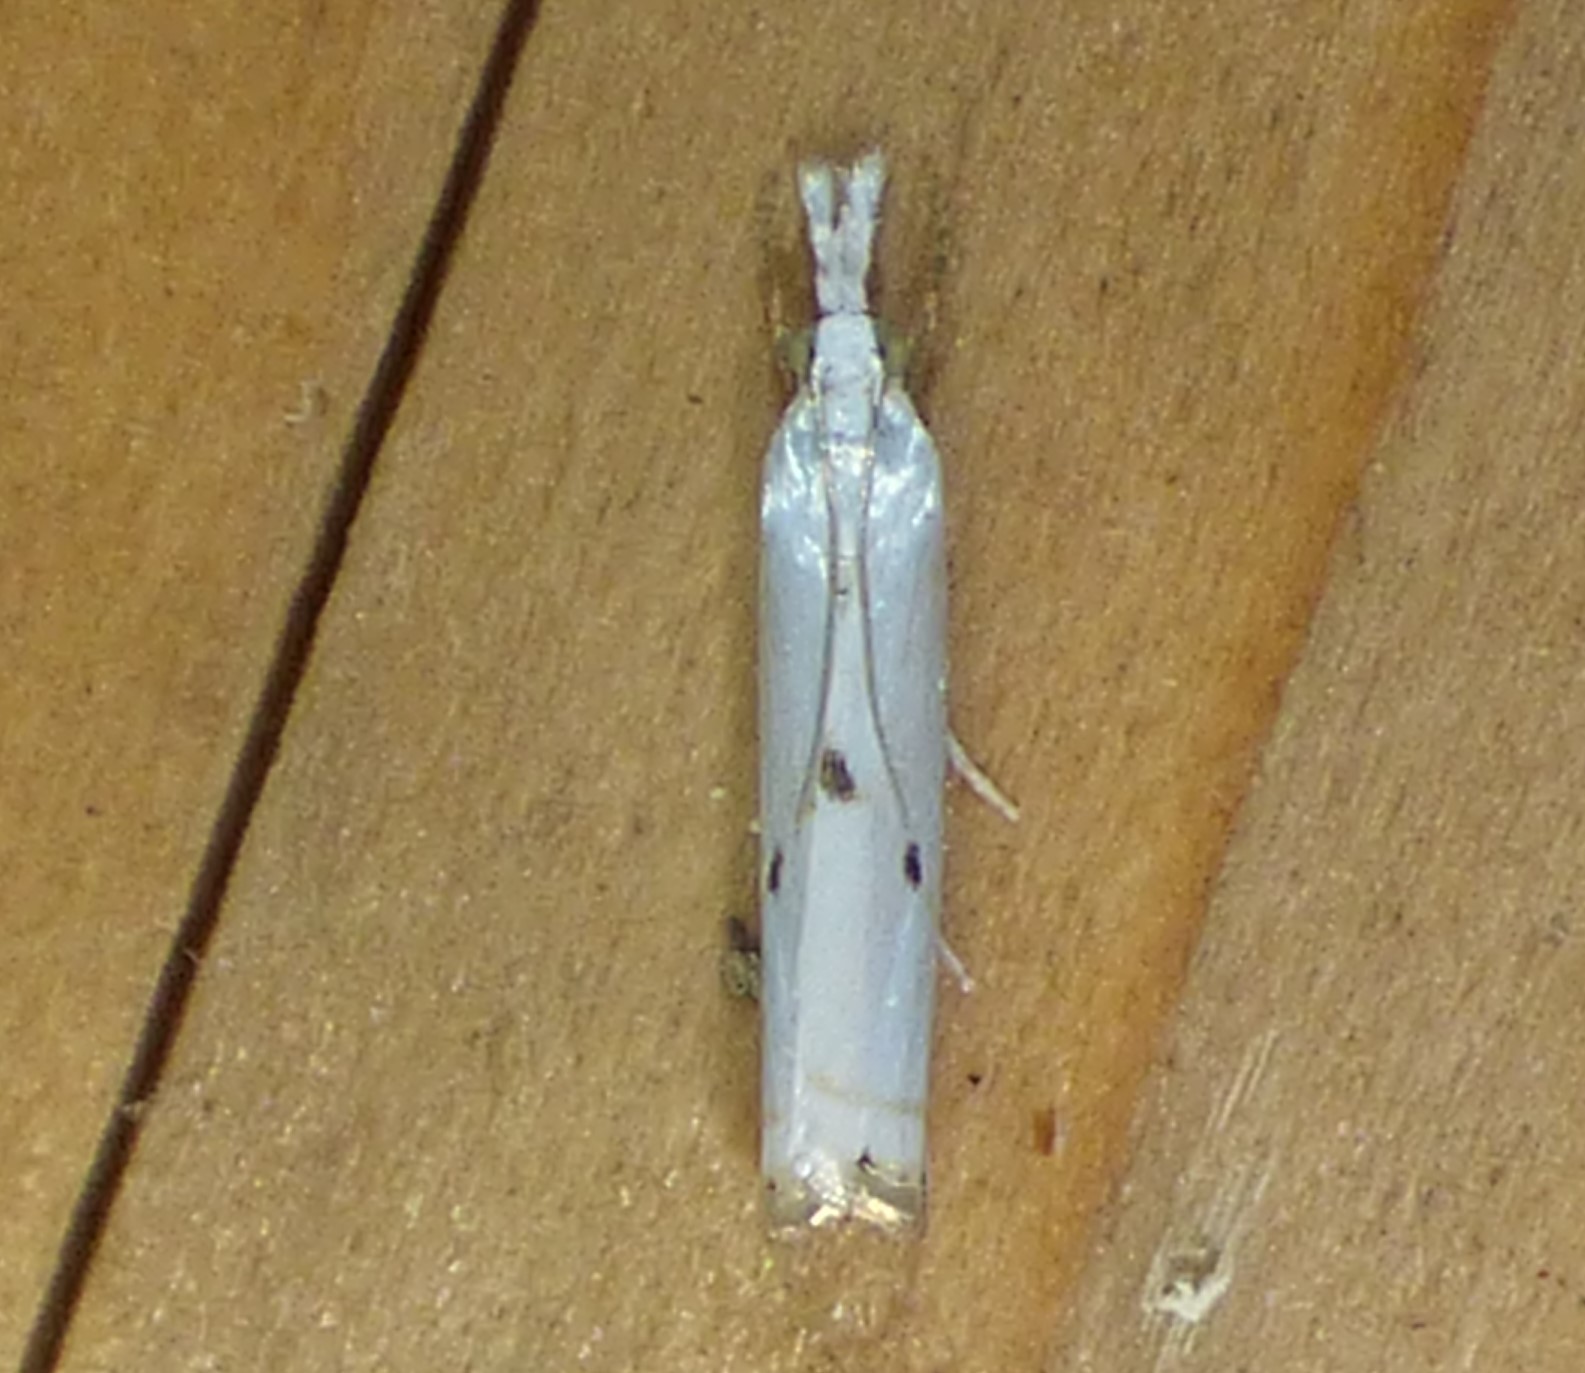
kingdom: Animalia
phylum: Arthropoda
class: Insecta
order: Lepidoptera
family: Crambidae
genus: Microcrambus
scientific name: Microcrambus biguttellus
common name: Gold-stripe grass-veneer moth
